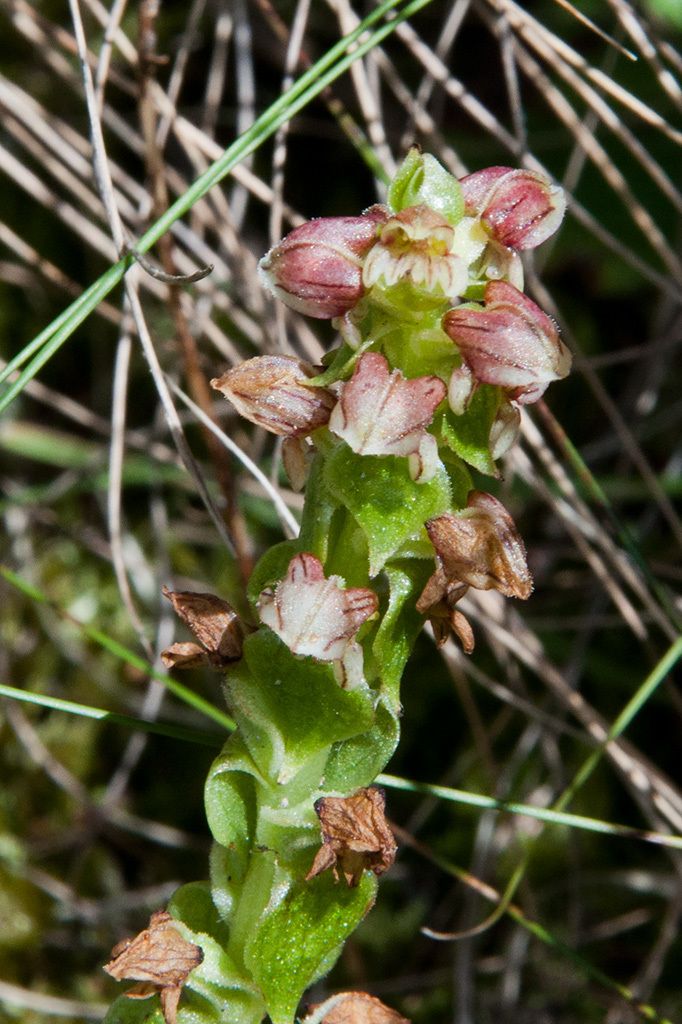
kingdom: Plantae
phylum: Tracheophyta
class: Liliopsida
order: Asparagales
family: Orchidaceae
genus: Satyrium
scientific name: Satyrium bracteatum
